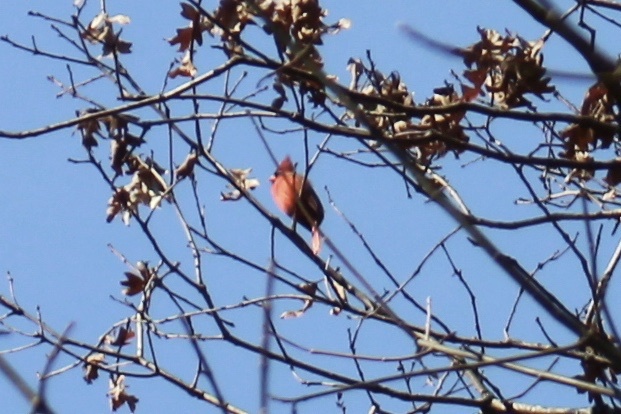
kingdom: Animalia
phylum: Chordata
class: Aves
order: Passeriformes
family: Cardinalidae
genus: Cardinalis
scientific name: Cardinalis cardinalis
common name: Northern cardinal
